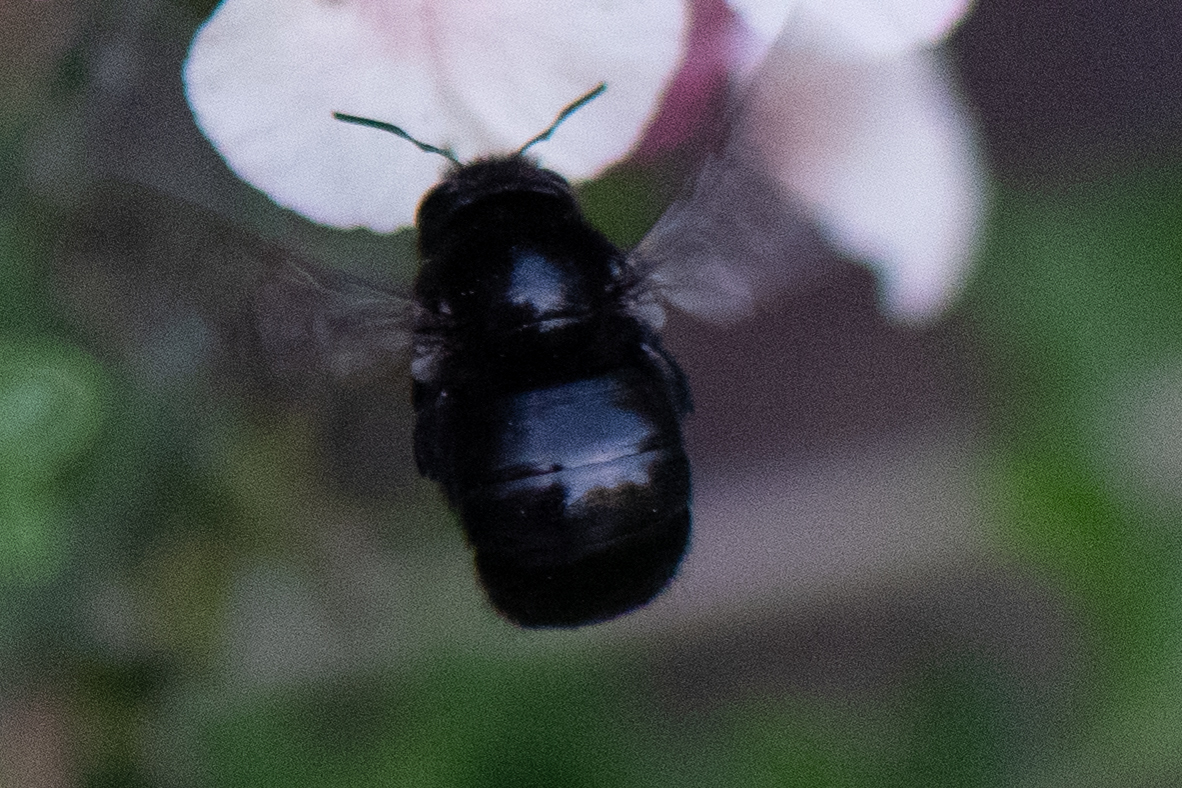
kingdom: Animalia
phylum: Arthropoda
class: Insecta
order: Hymenoptera
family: Apidae
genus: Xylocopa
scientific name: Xylocopa tabaniformis
